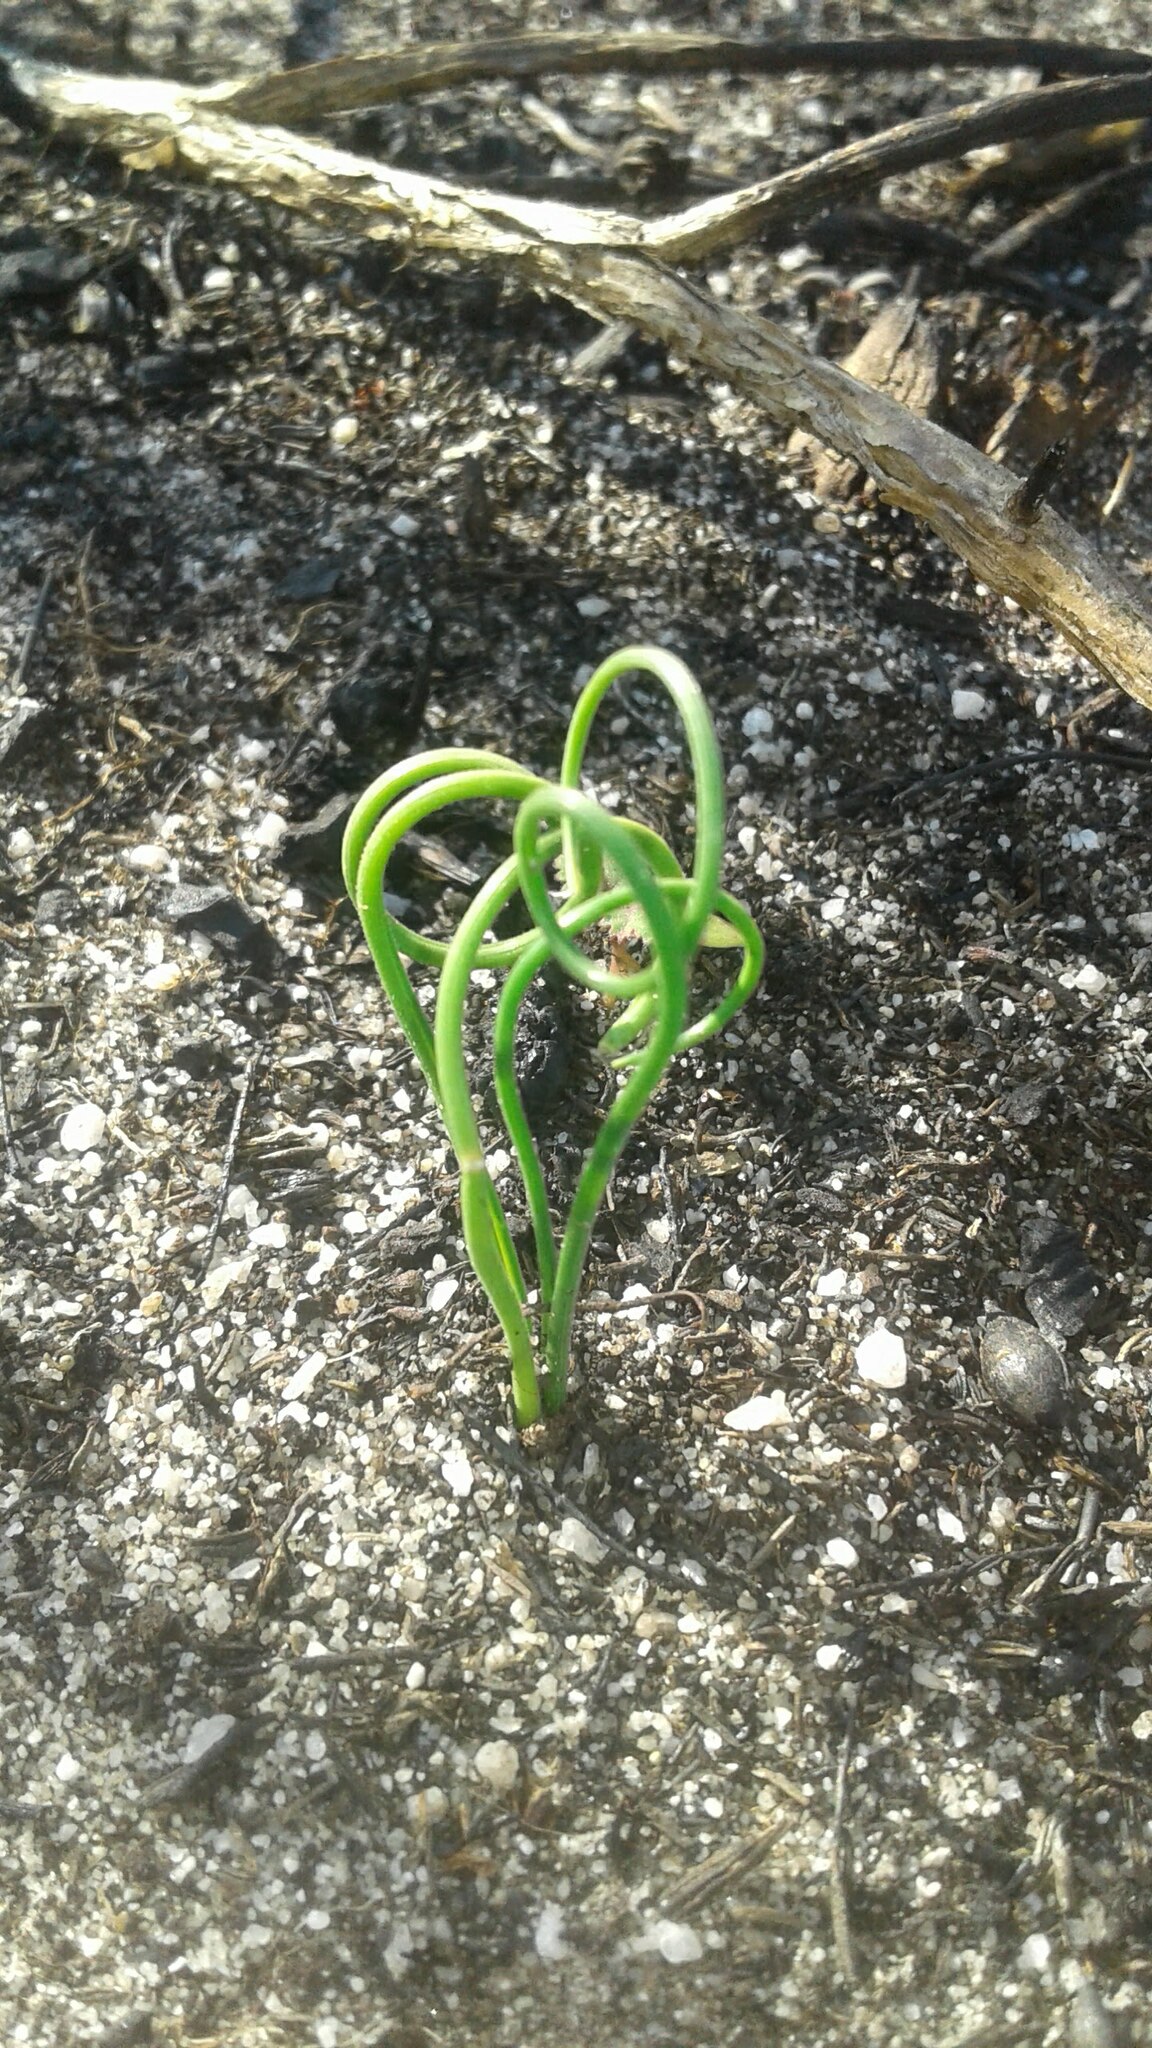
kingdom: Plantae
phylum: Tracheophyta
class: Liliopsida
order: Asparagales
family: Asparagaceae
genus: Albuca
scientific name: Albuca spiralis
